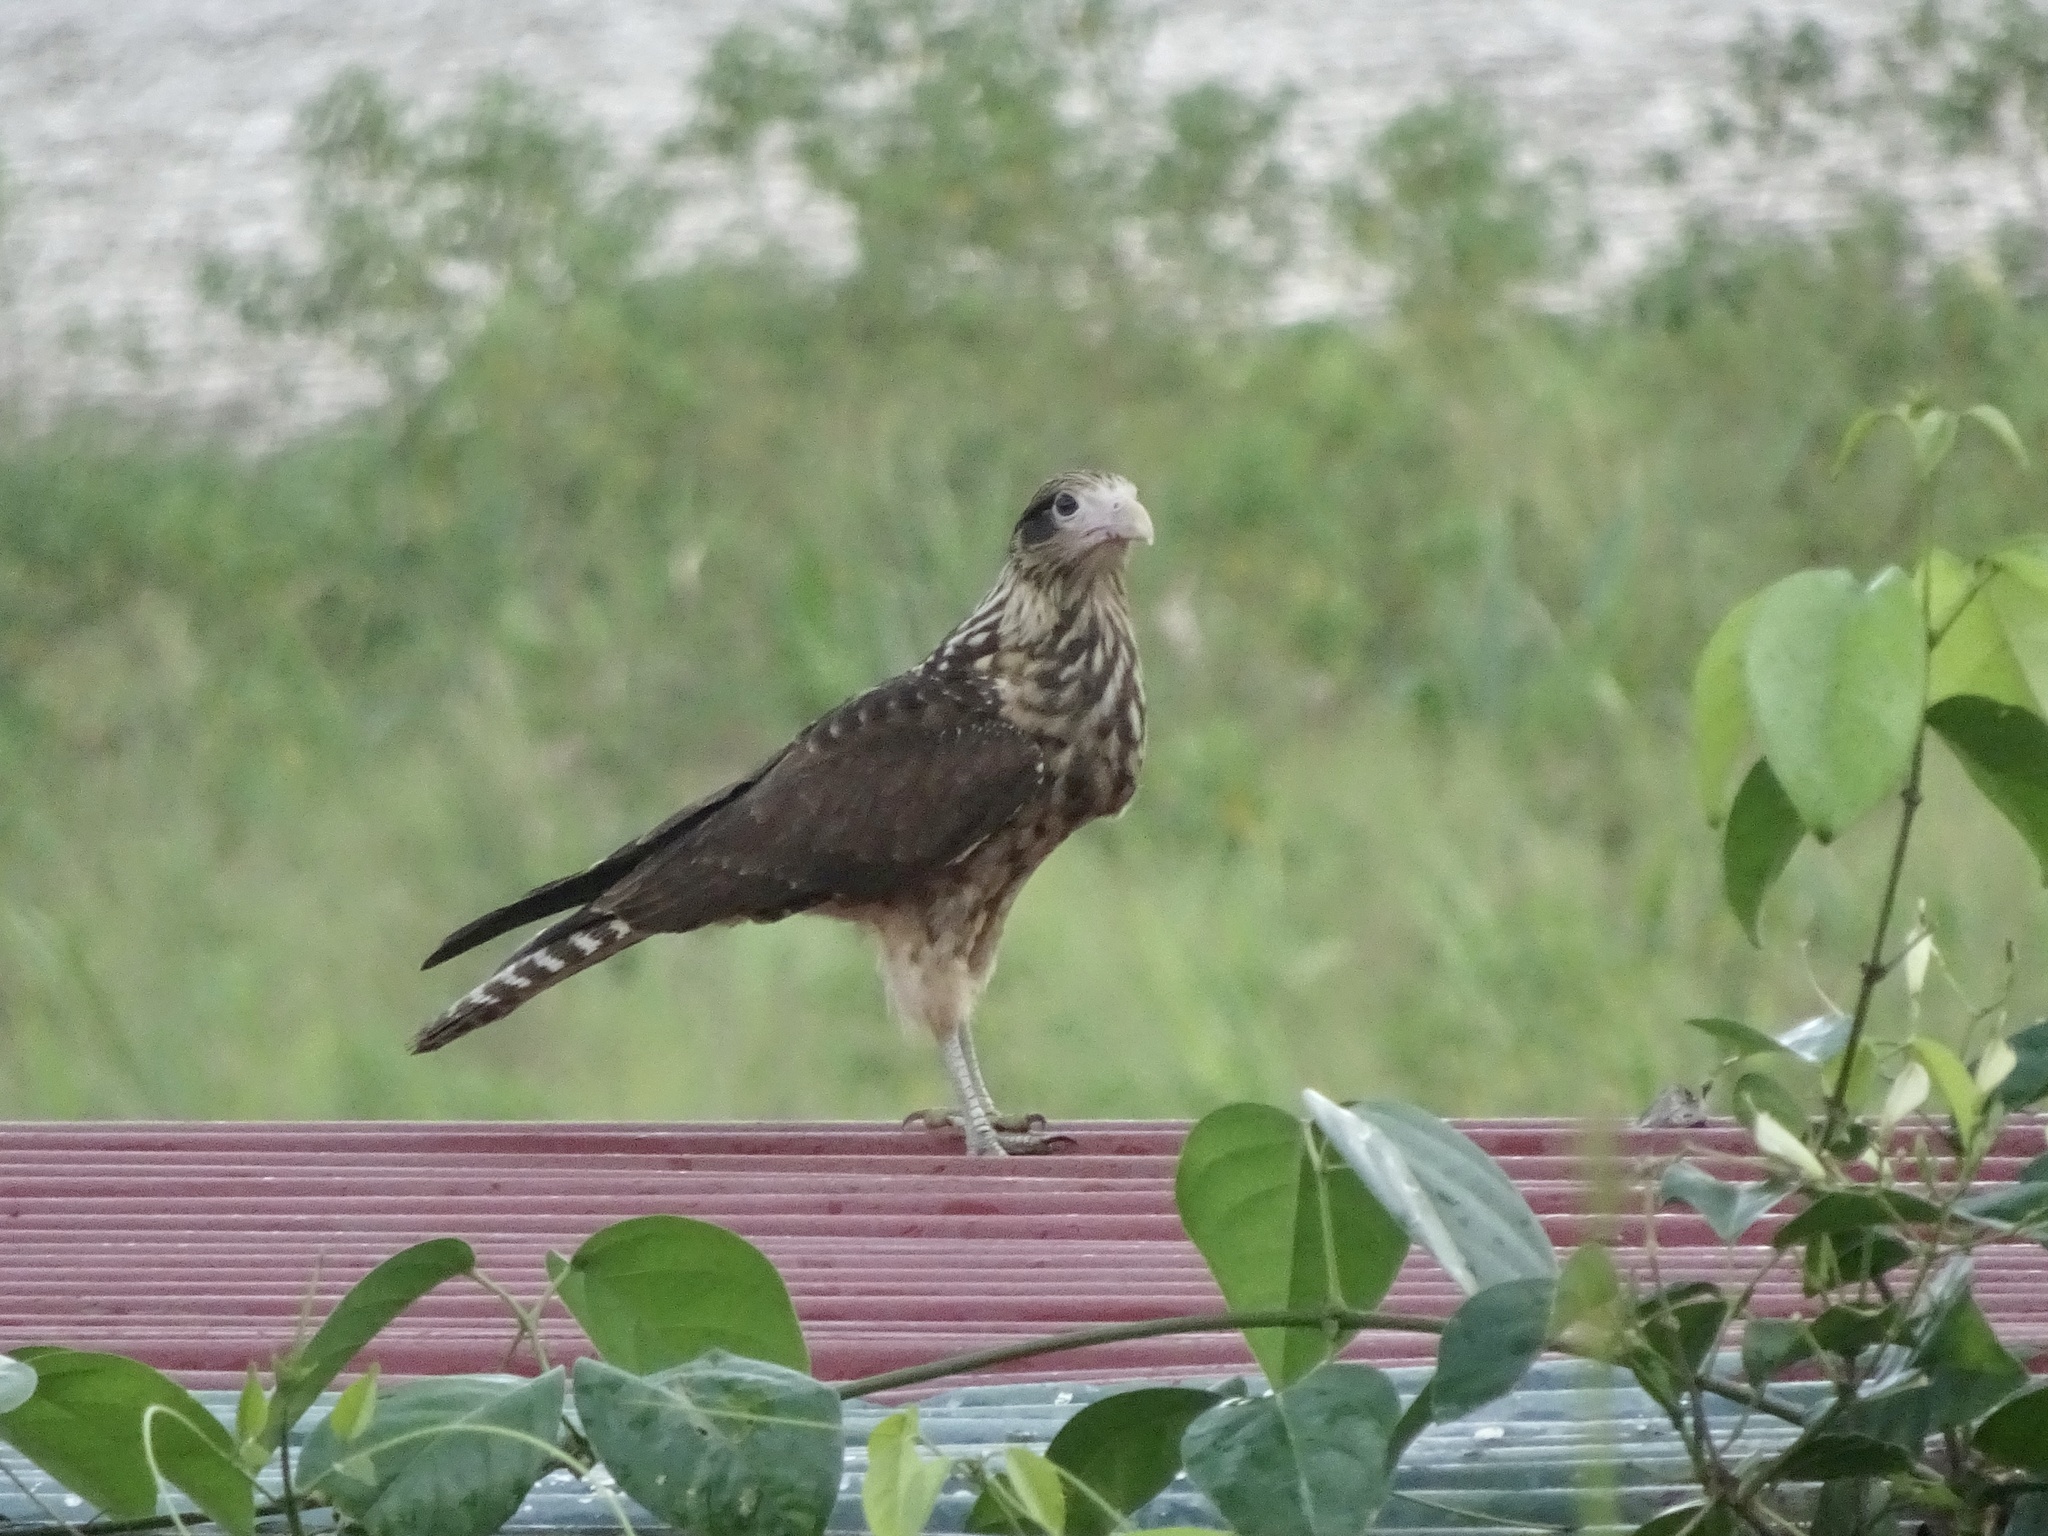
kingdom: Animalia
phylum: Chordata
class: Aves
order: Falconiformes
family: Falconidae
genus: Daptrius
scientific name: Daptrius
